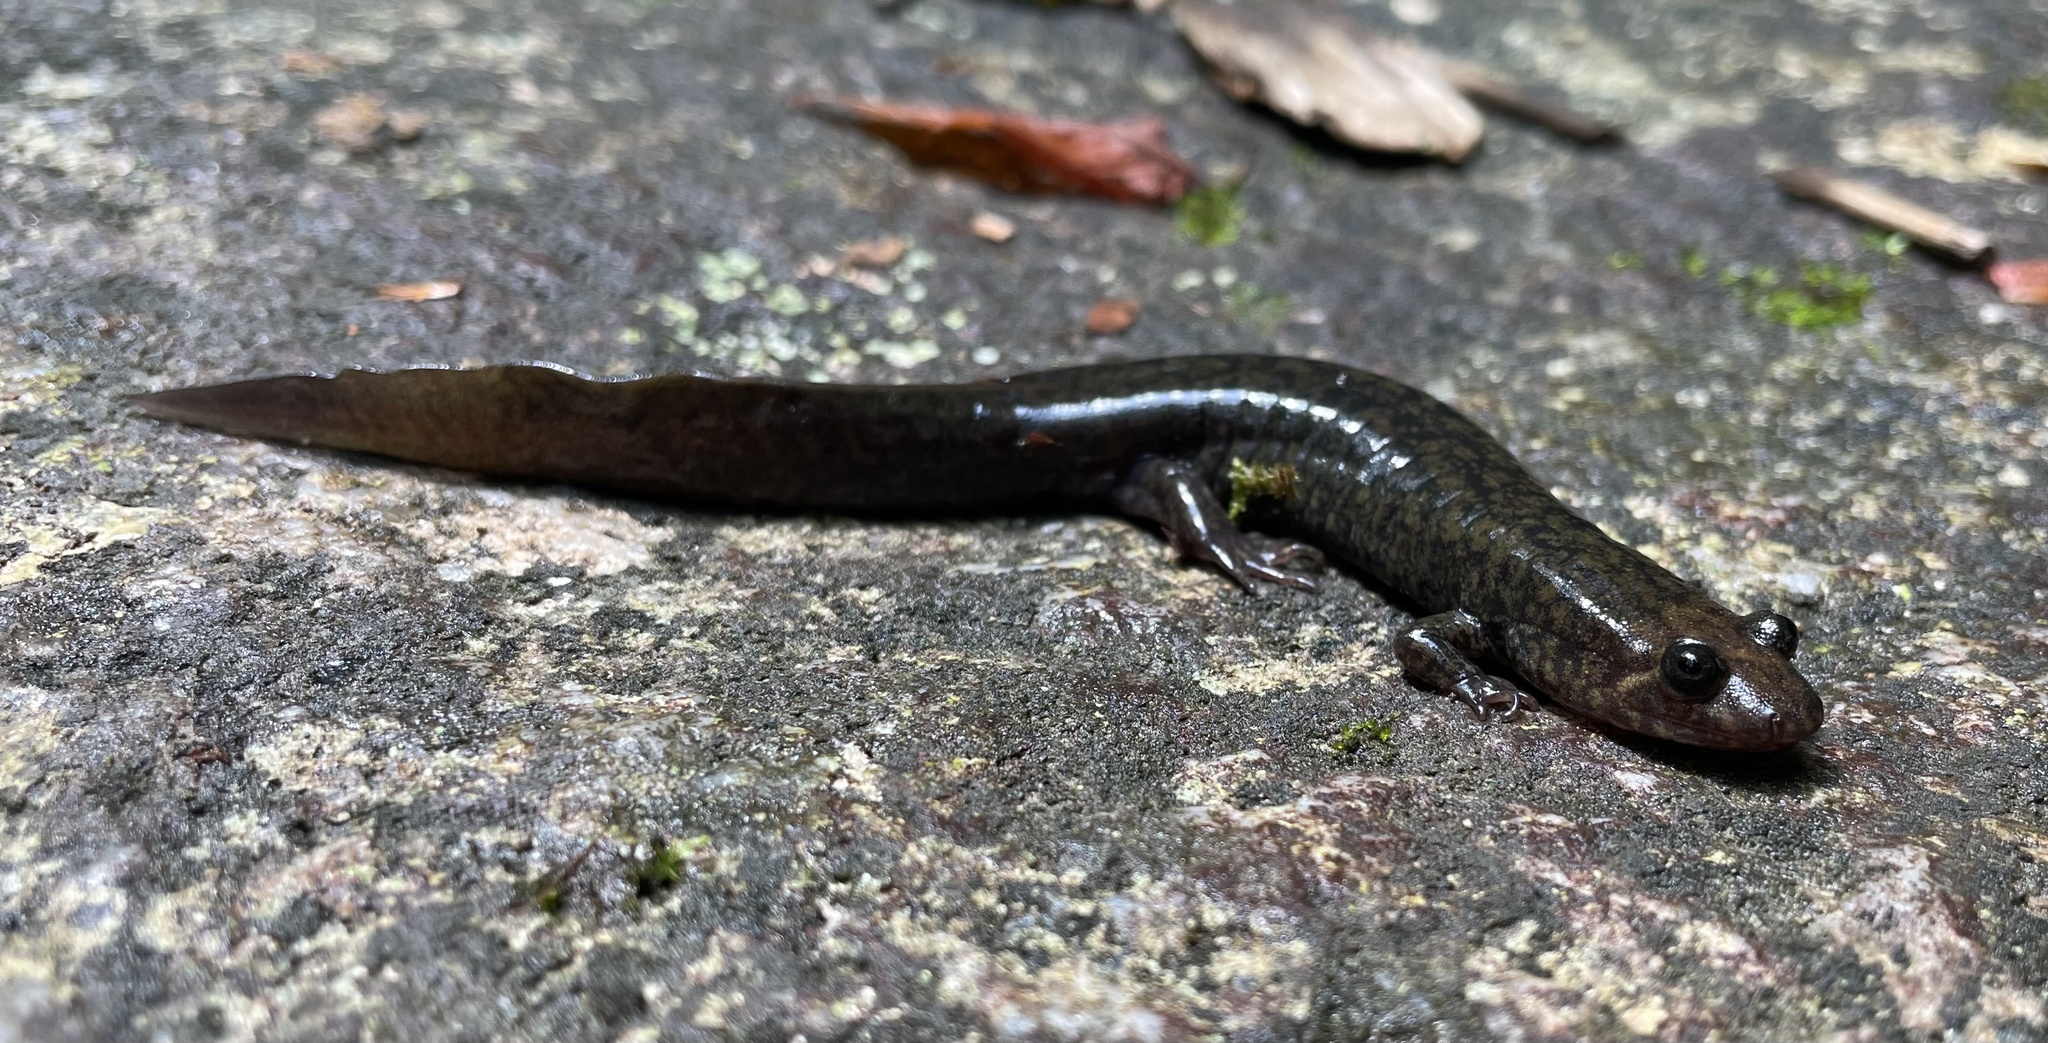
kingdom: Animalia
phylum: Chordata
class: Amphibia
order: Caudata
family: Plethodontidae
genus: Desmognathus
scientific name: Desmognathus
